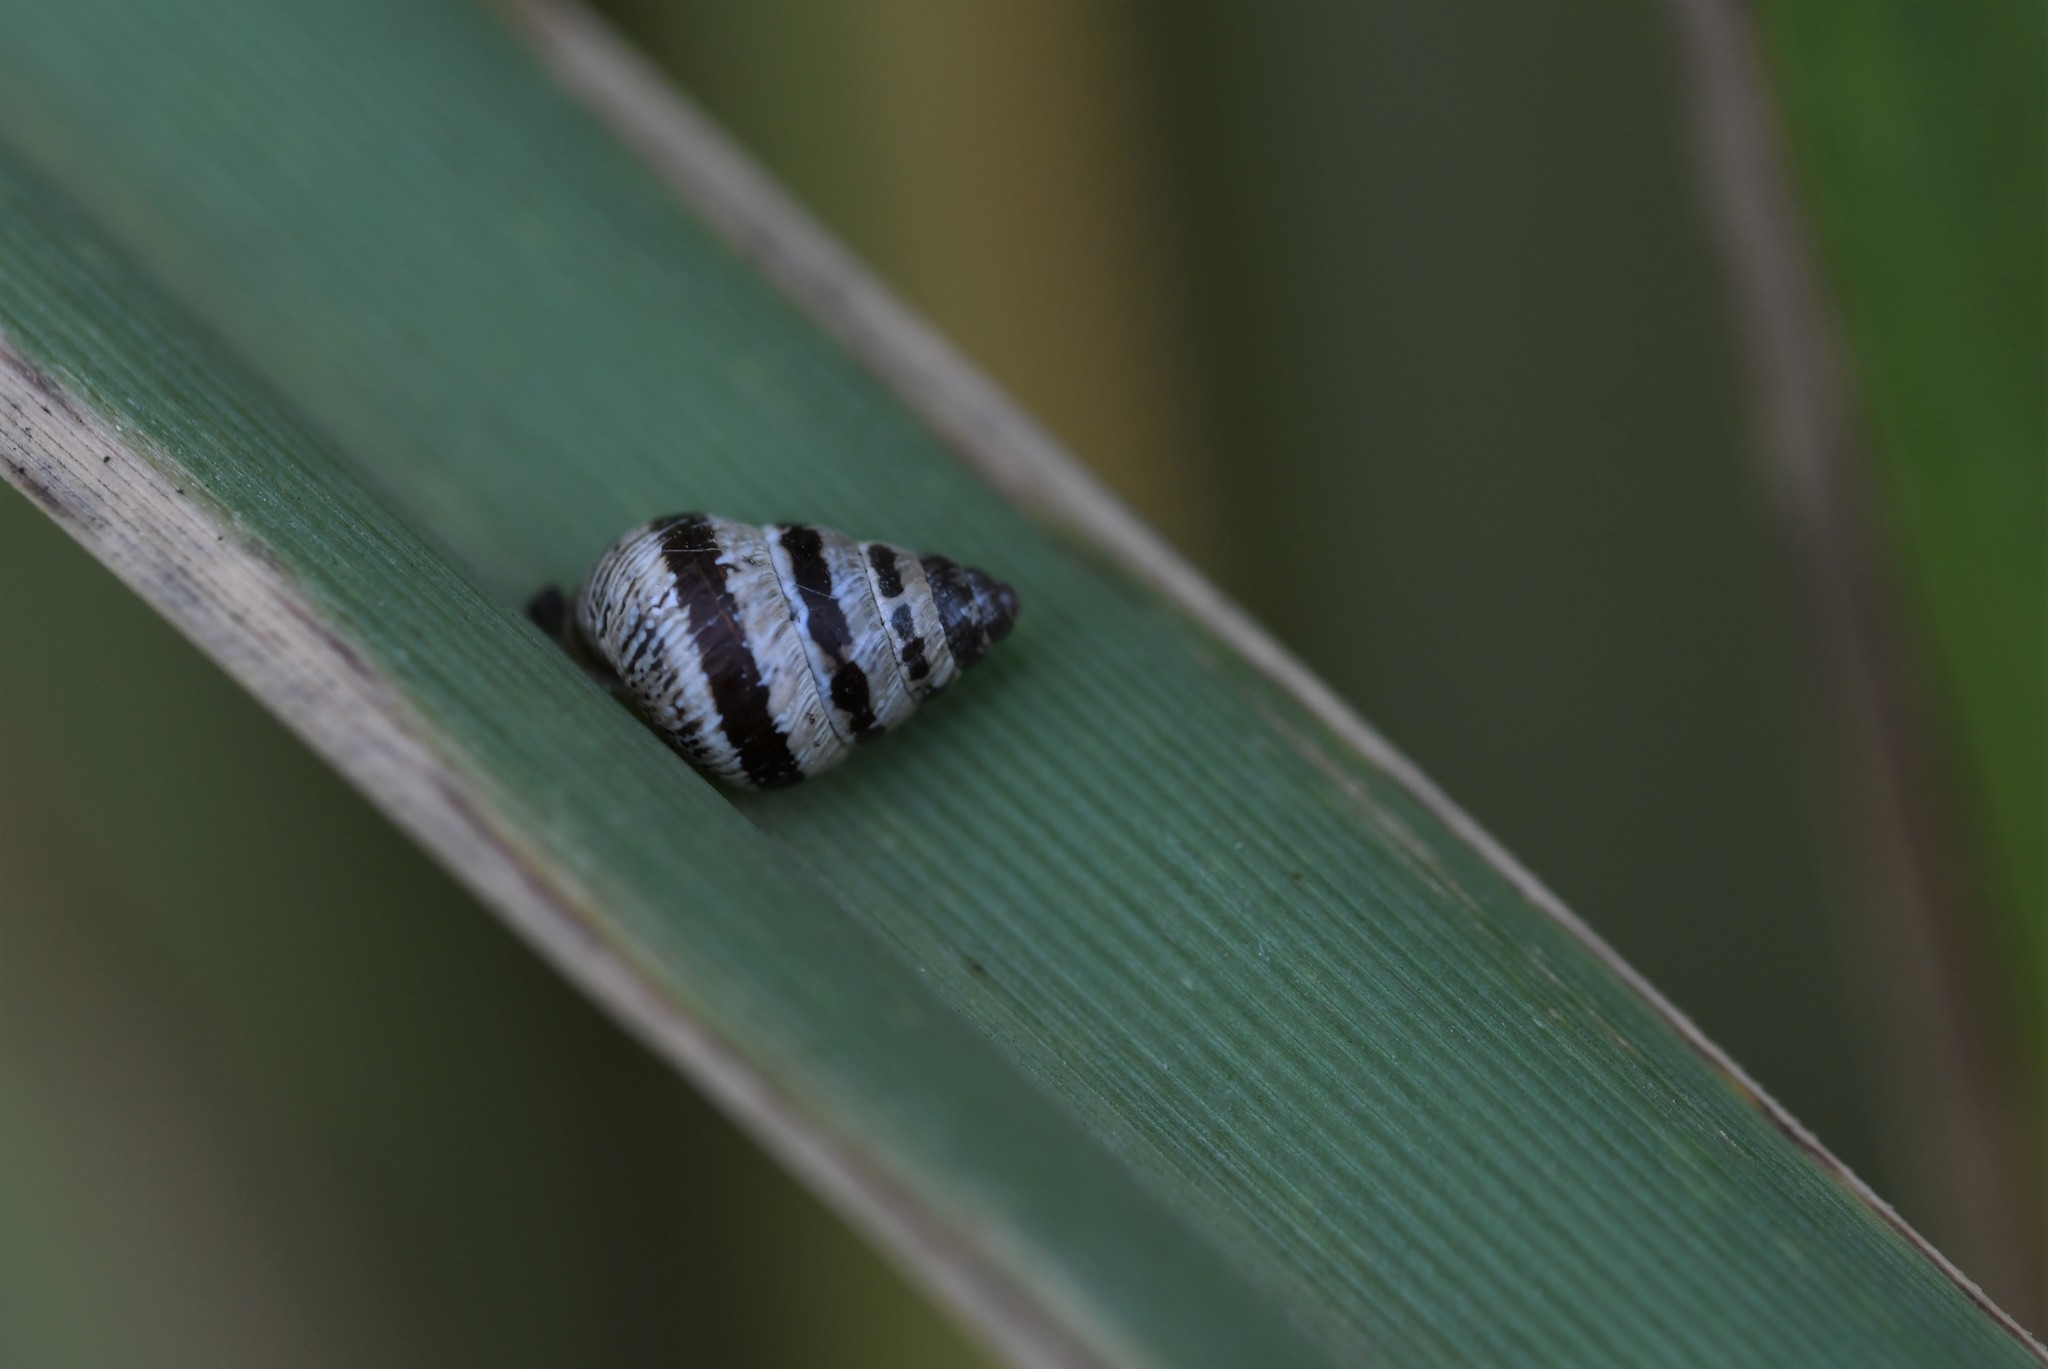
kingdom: Animalia
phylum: Mollusca
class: Gastropoda
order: Stylommatophora
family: Geomitridae
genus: Cochlicella
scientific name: Cochlicella barbara
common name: Potbellied helicellid
